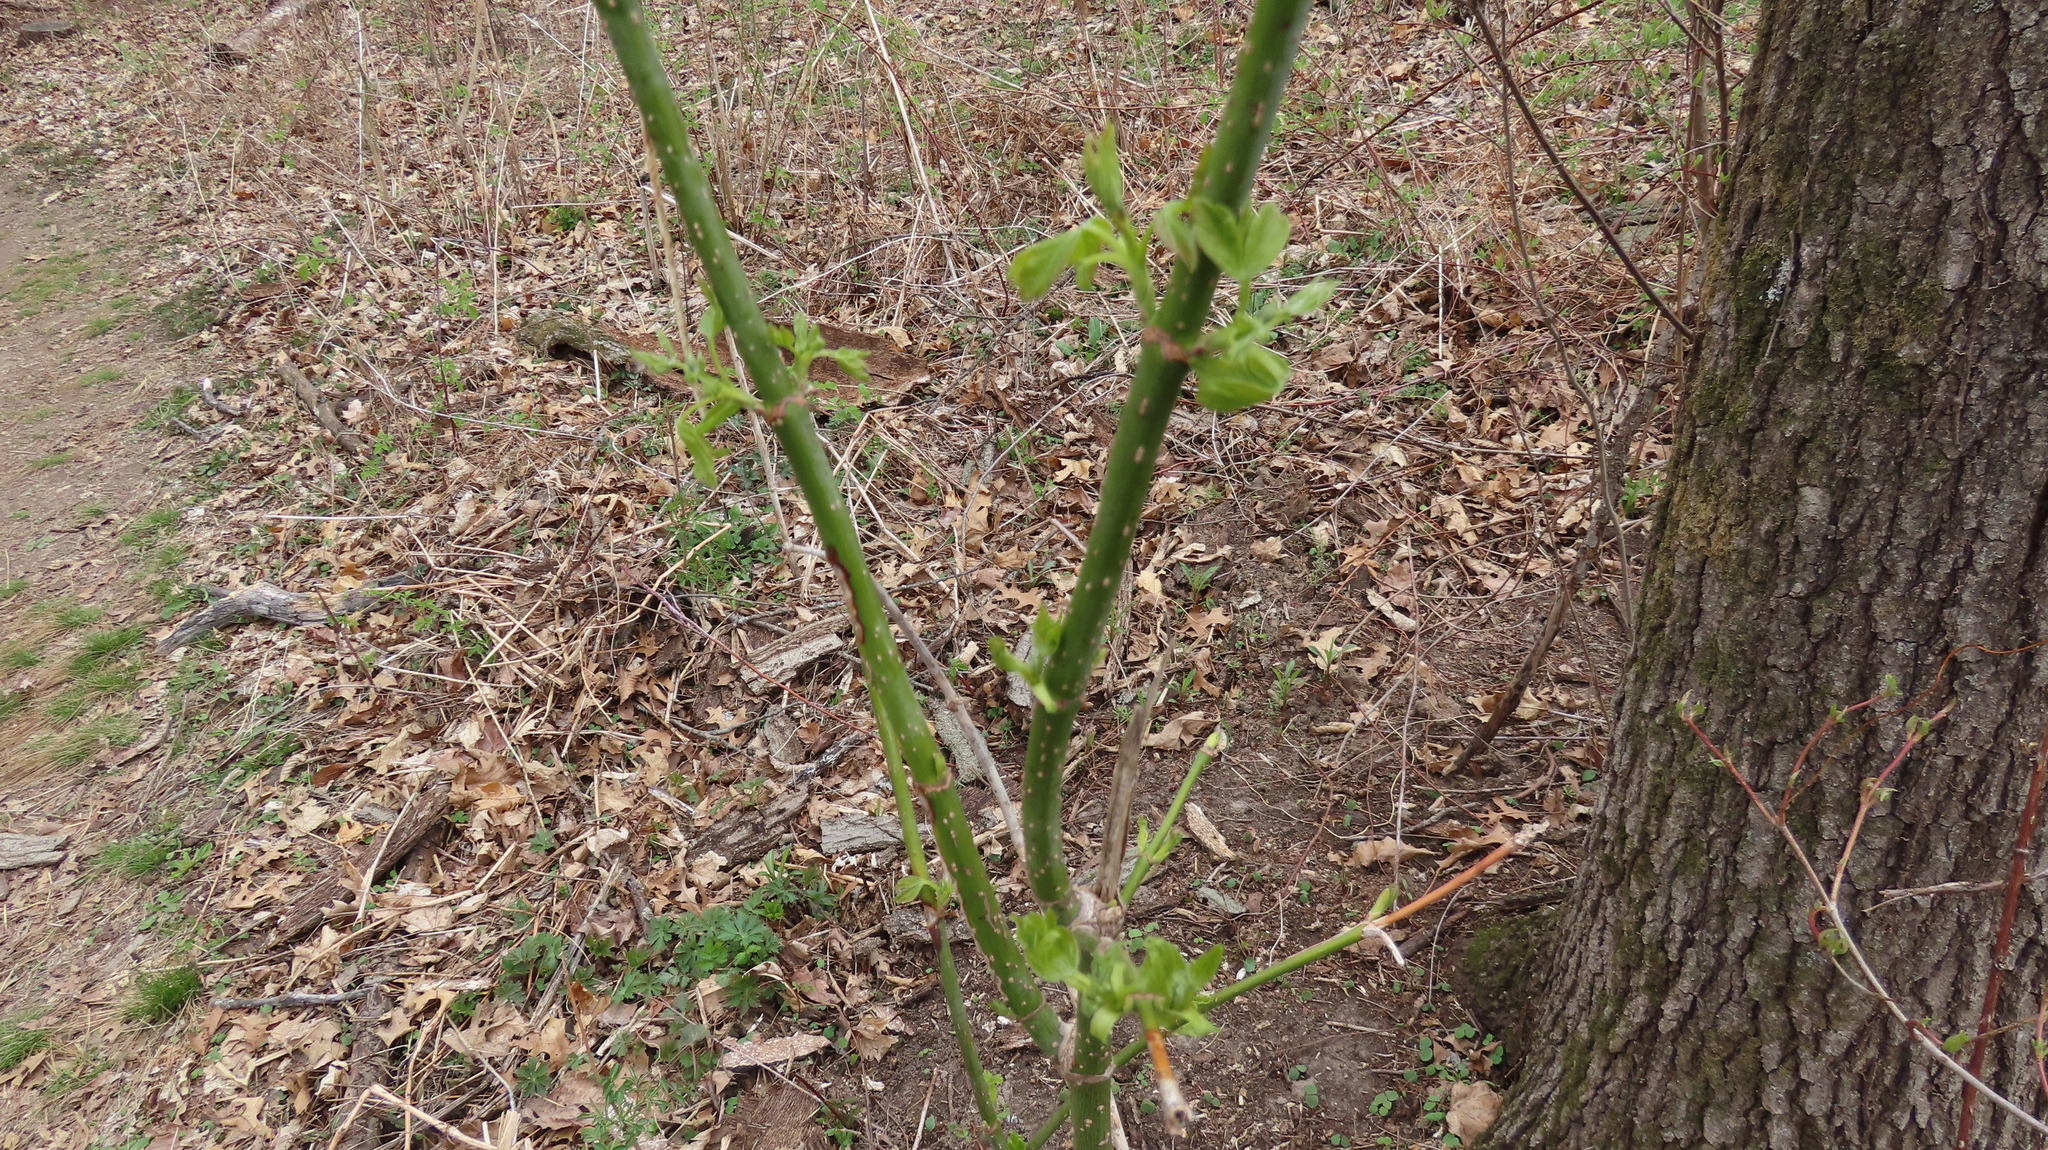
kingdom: Plantae
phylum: Tracheophyta
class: Magnoliopsida
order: Sapindales
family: Sapindaceae
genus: Acer
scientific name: Acer negundo
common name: Ashleaf maple
